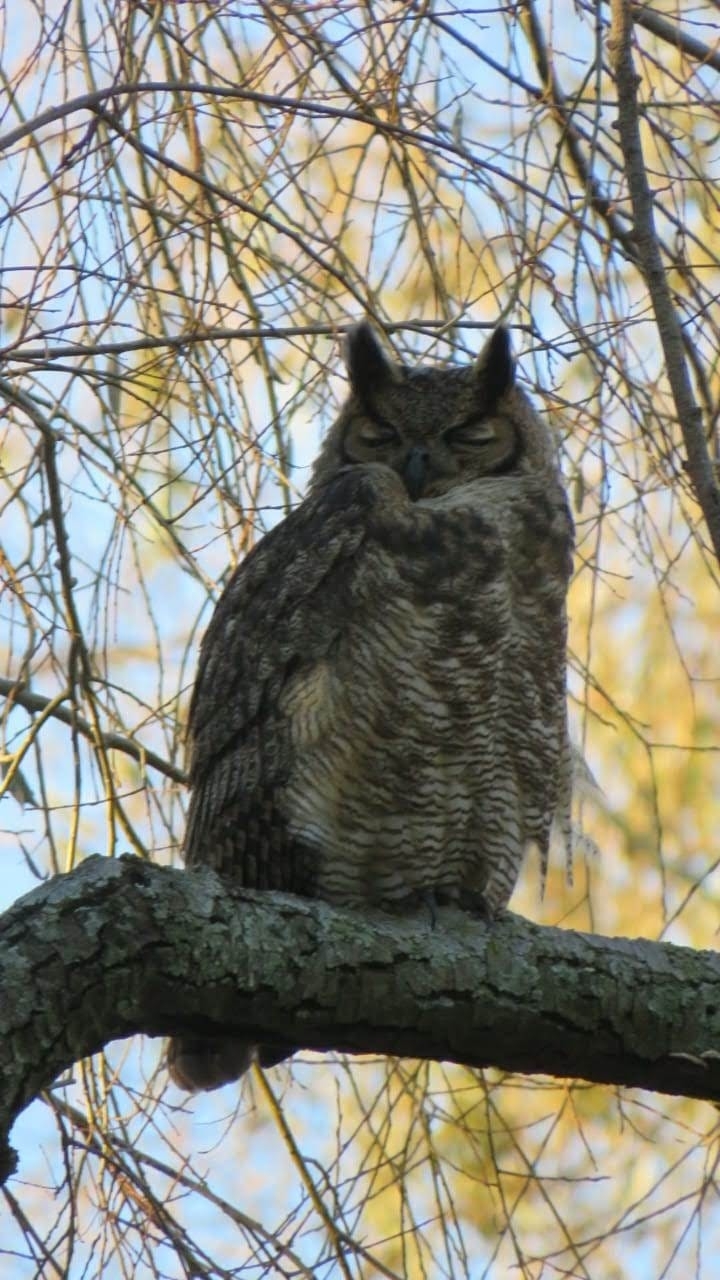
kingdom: Animalia
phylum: Chordata
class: Aves
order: Strigiformes
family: Strigidae
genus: Bubo
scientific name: Bubo virginianus
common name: Great horned owl
